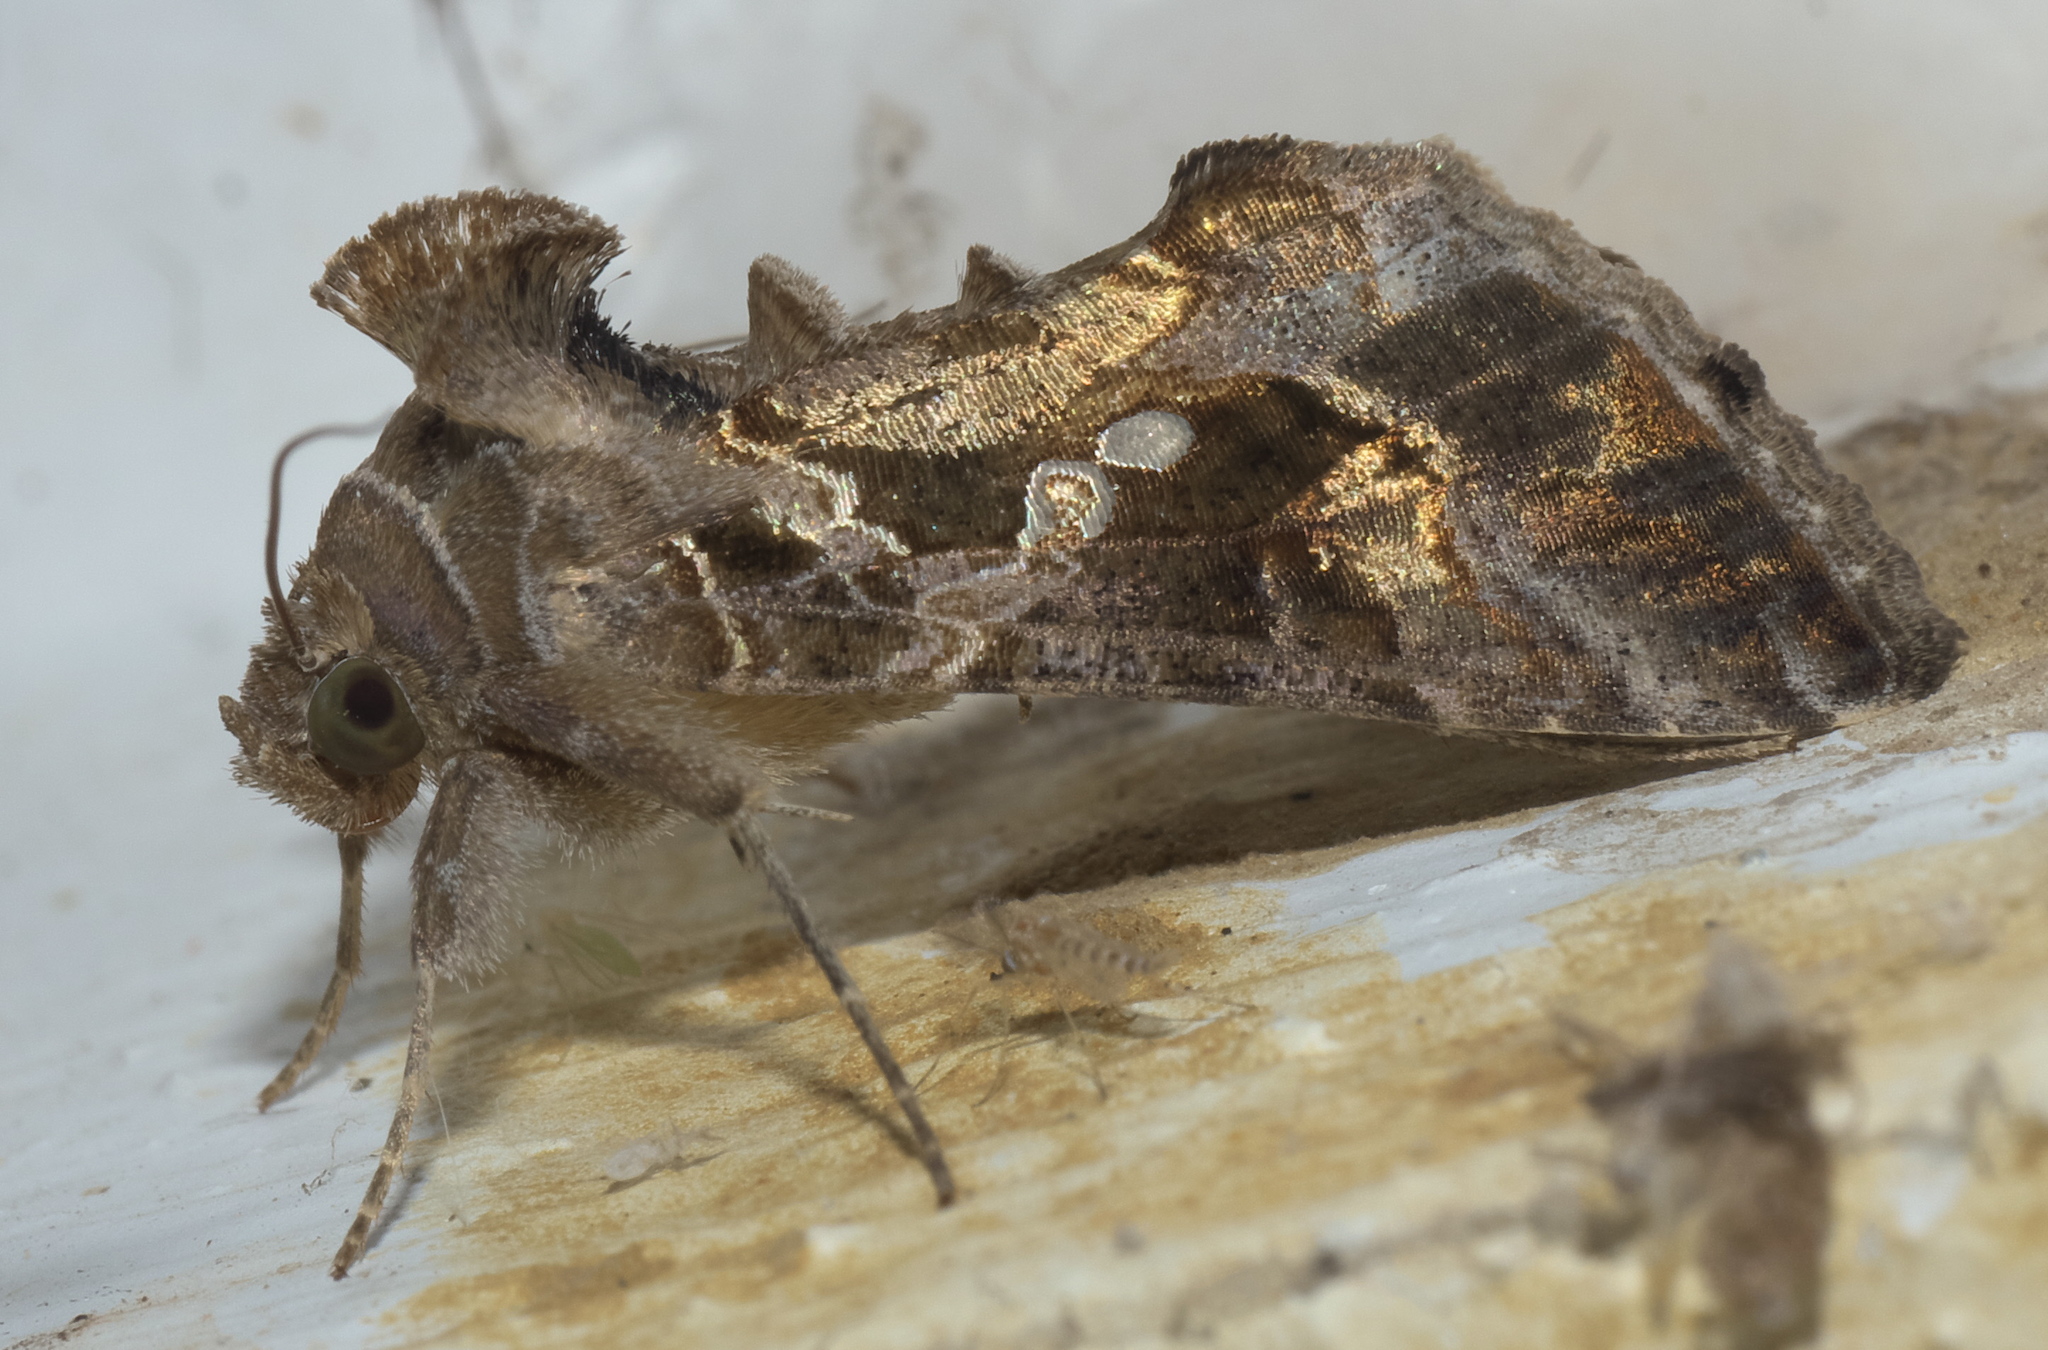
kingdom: Animalia
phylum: Arthropoda
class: Insecta
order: Lepidoptera
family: Noctuidae
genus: Chrysodeixis
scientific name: Chrysodeixis includens
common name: Cutworm moth
